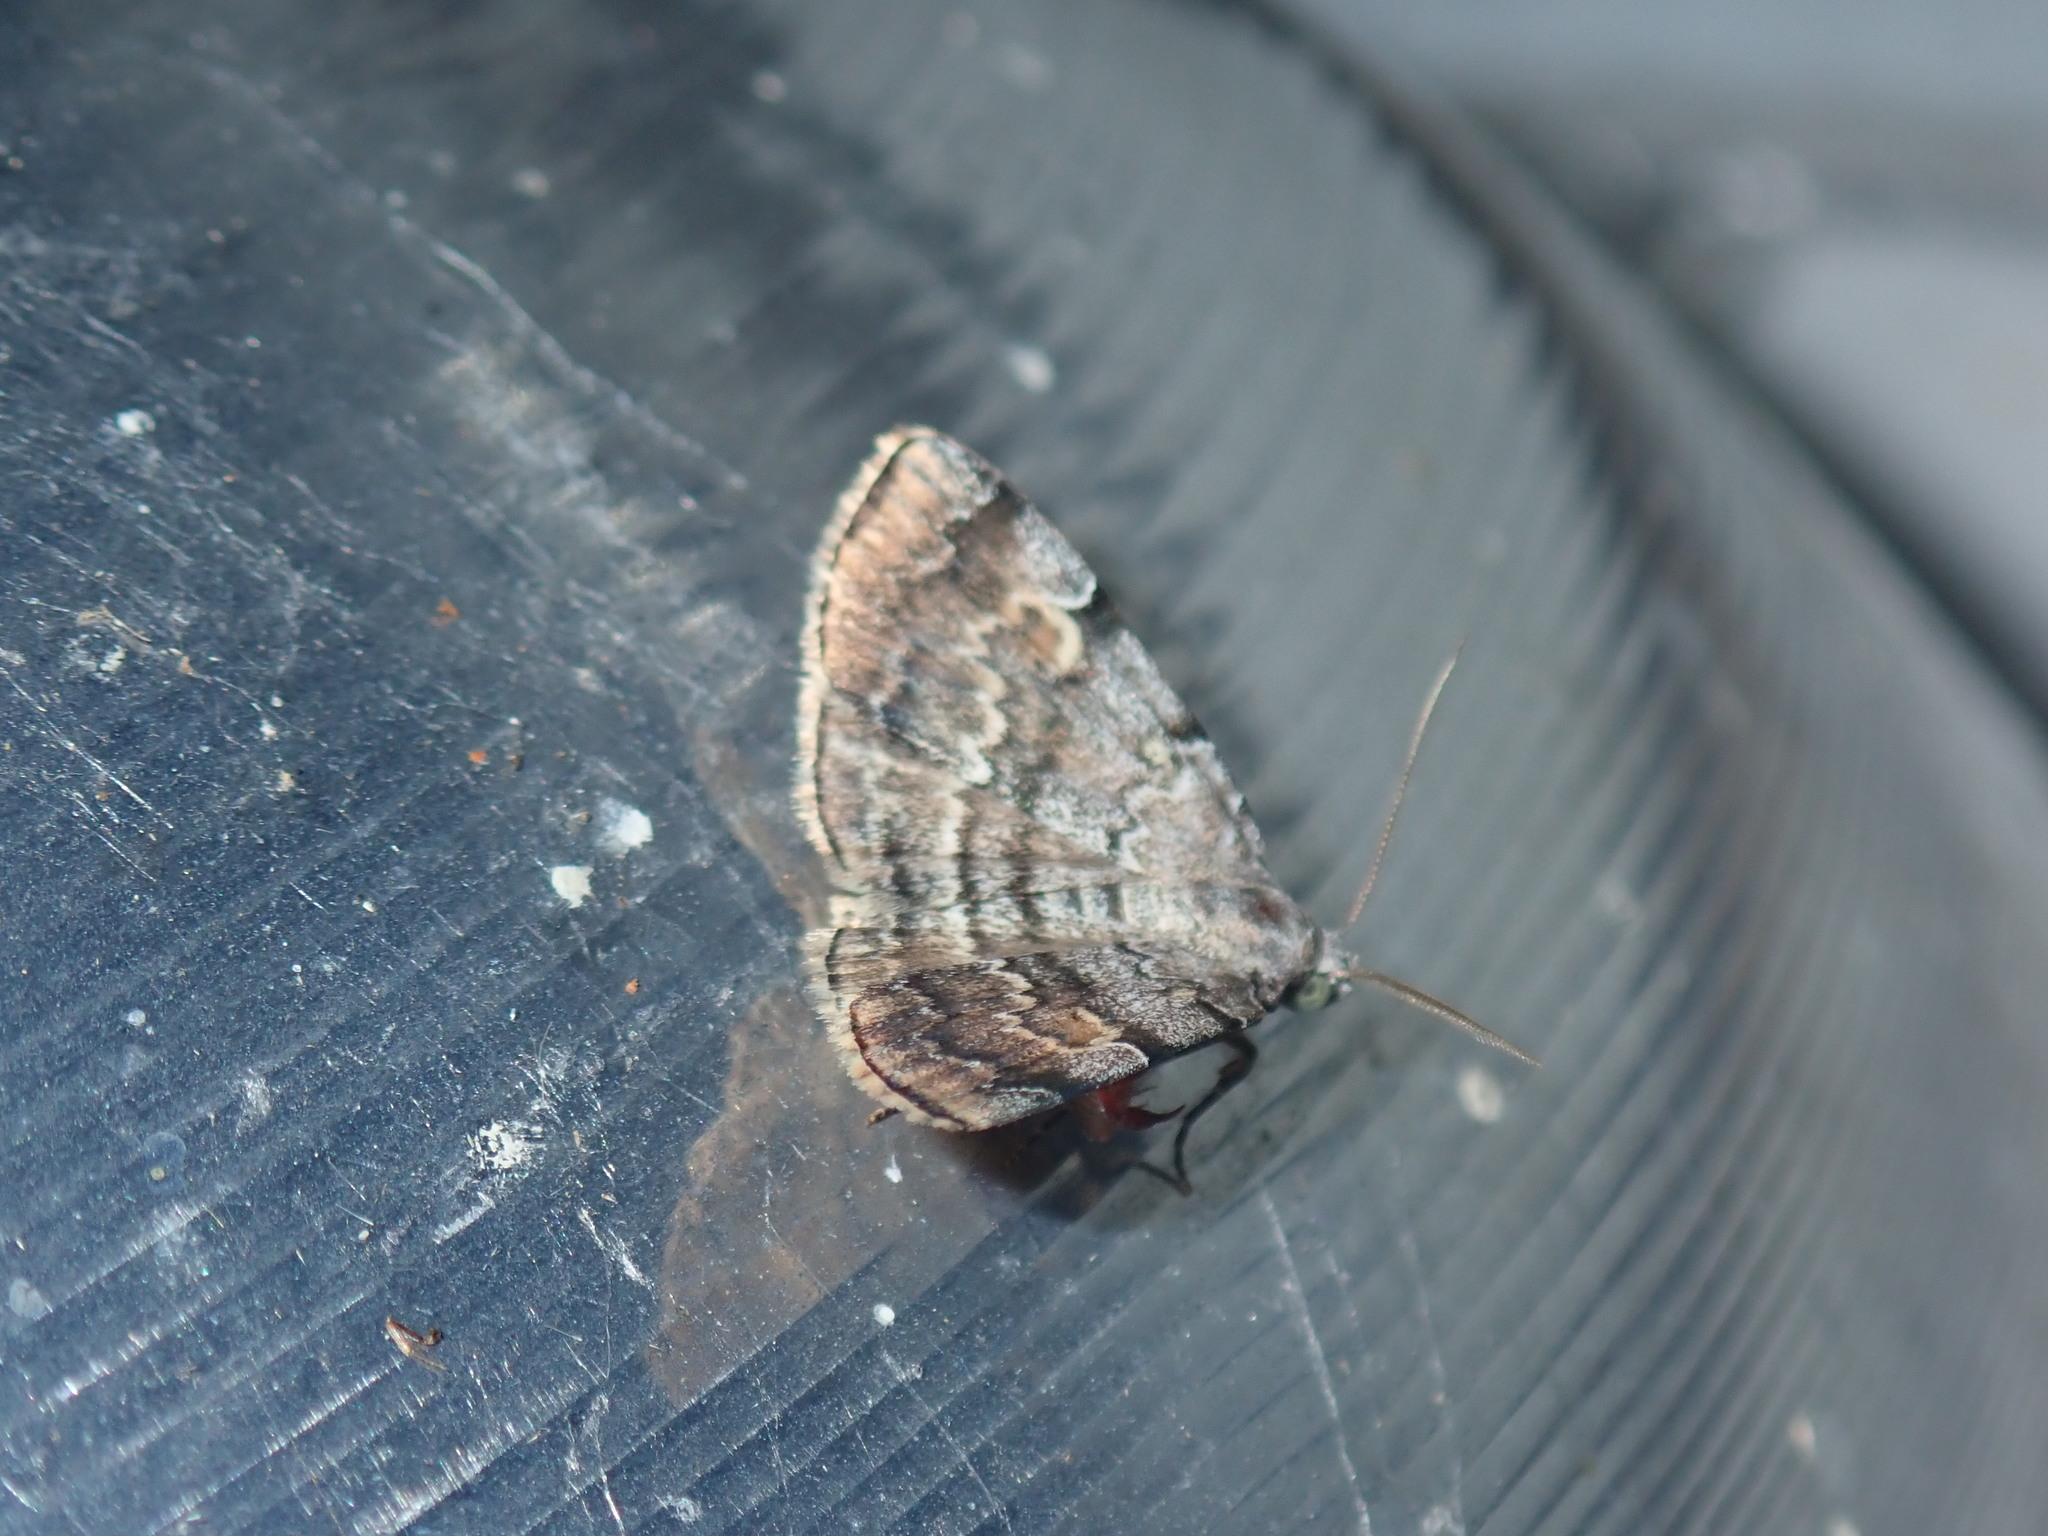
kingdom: Animalia
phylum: Arthropoda
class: Insecta
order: Lepidoptera
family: Erebidae
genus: Idia
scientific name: Idia americalis
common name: American idia moth
